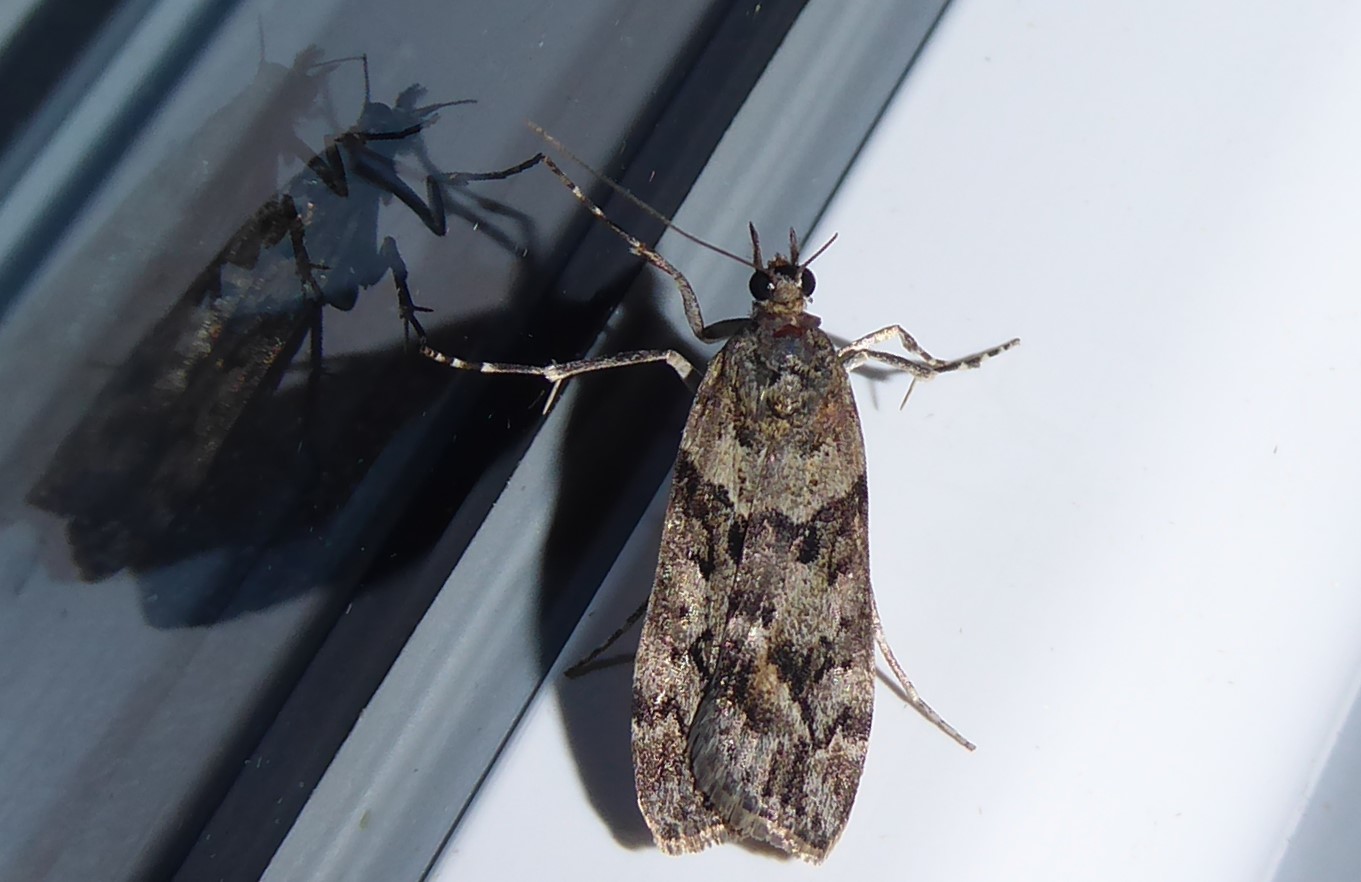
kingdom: Animalia
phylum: Arthropoda
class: Insecta
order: Lepidoptera
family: Crambidae
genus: Eudonia
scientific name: Eudonia submarginalis
